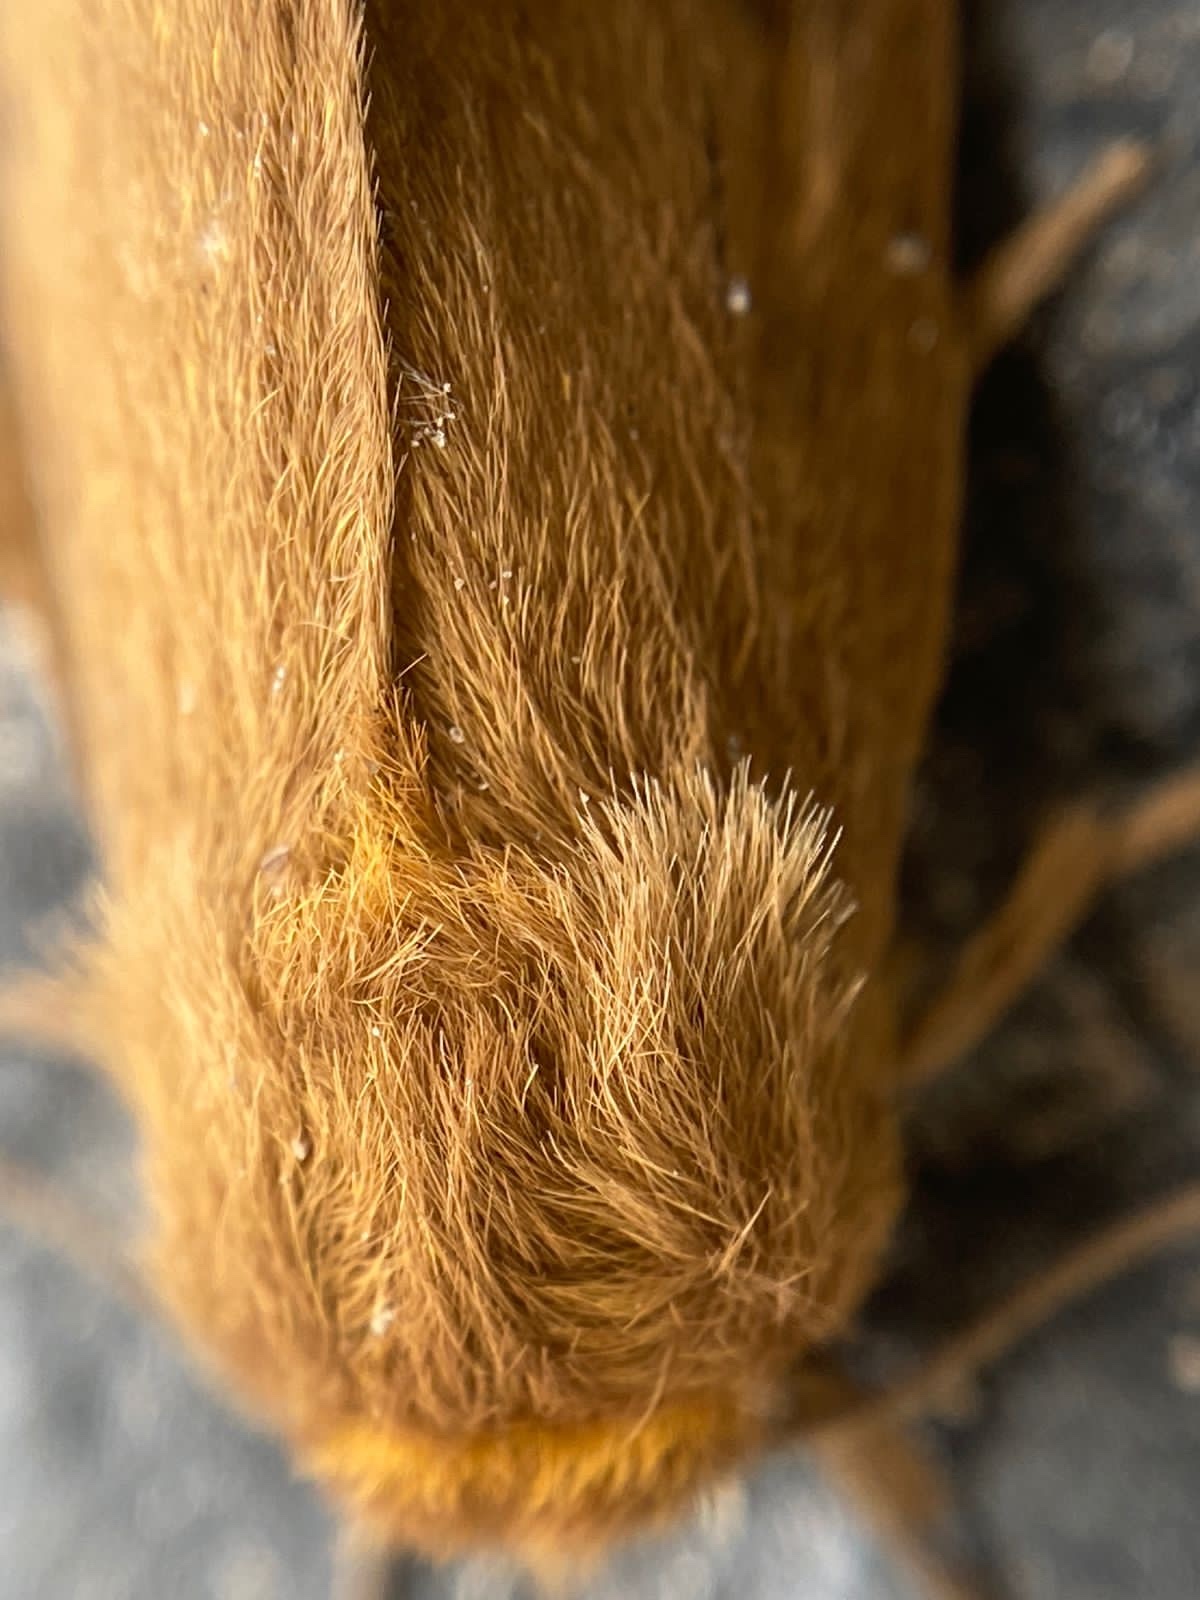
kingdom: Animalia
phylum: Arthropoda
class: Insecta
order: Lepidoptera
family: Erebidae
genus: Paracles
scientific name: Paracles fusca
